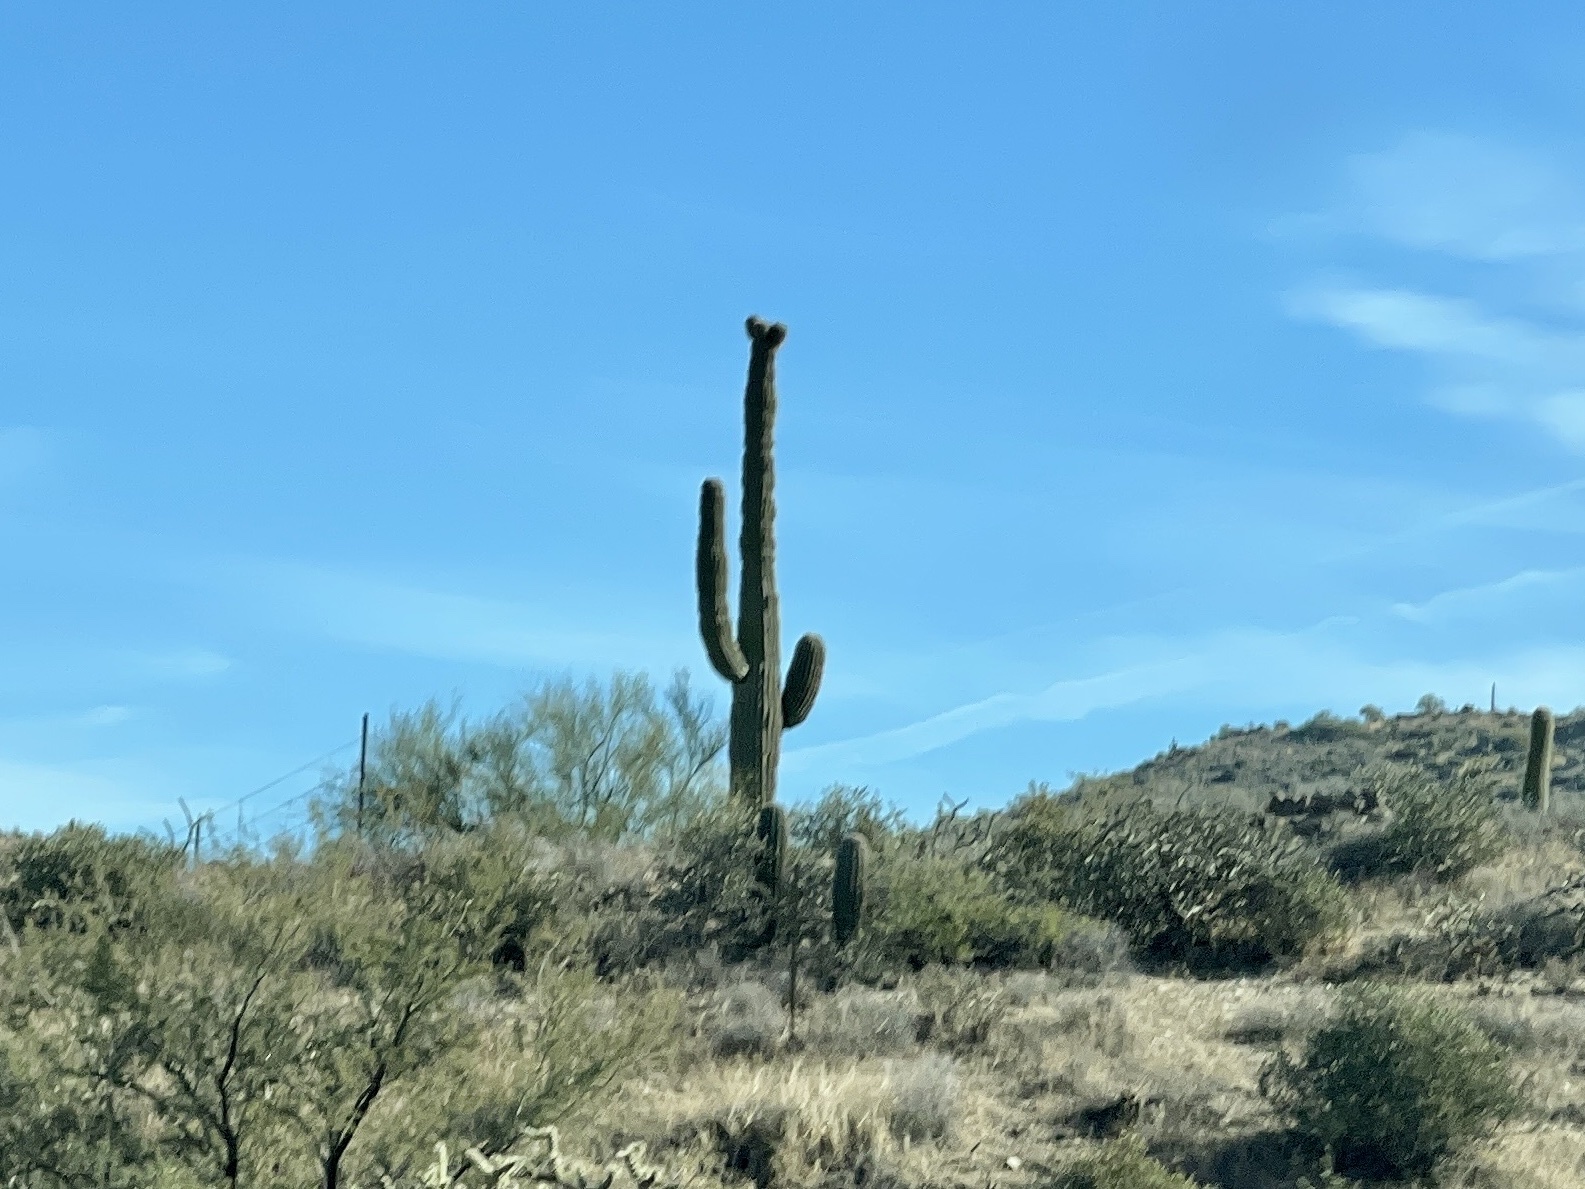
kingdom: Plantae
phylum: Tracheophyta
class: Magnoliopsida
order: Caryophyllales
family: Cactaceae
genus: Carnegiea
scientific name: Carnegiea gigantea
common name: Saguaro
